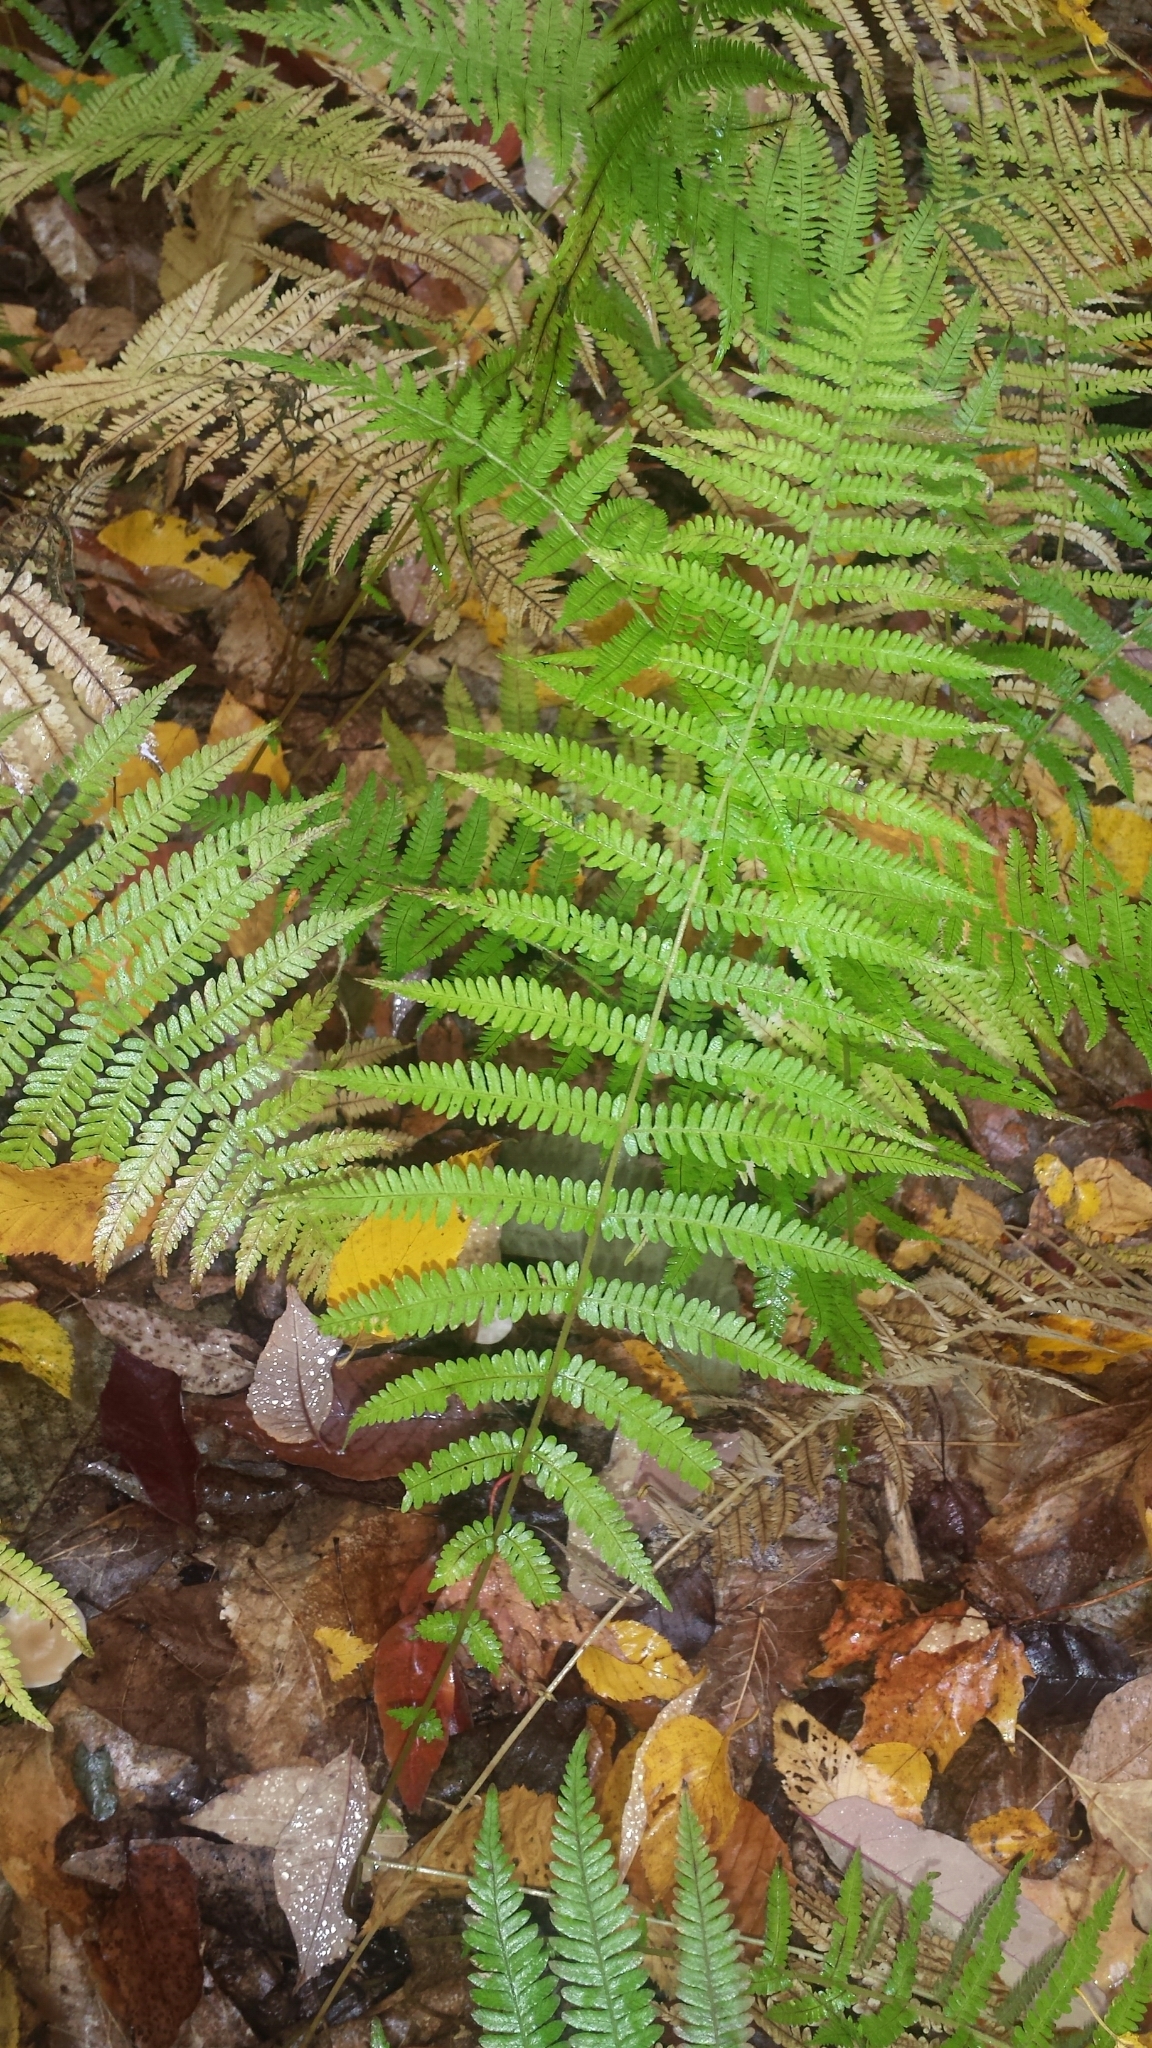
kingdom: Plantae
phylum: Tracheophyta
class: Polypodiopsida
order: Polypodiales
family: Thelypteridaceae
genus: Amauropelta
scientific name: Amauropelta noveboracensis
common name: New york fern
